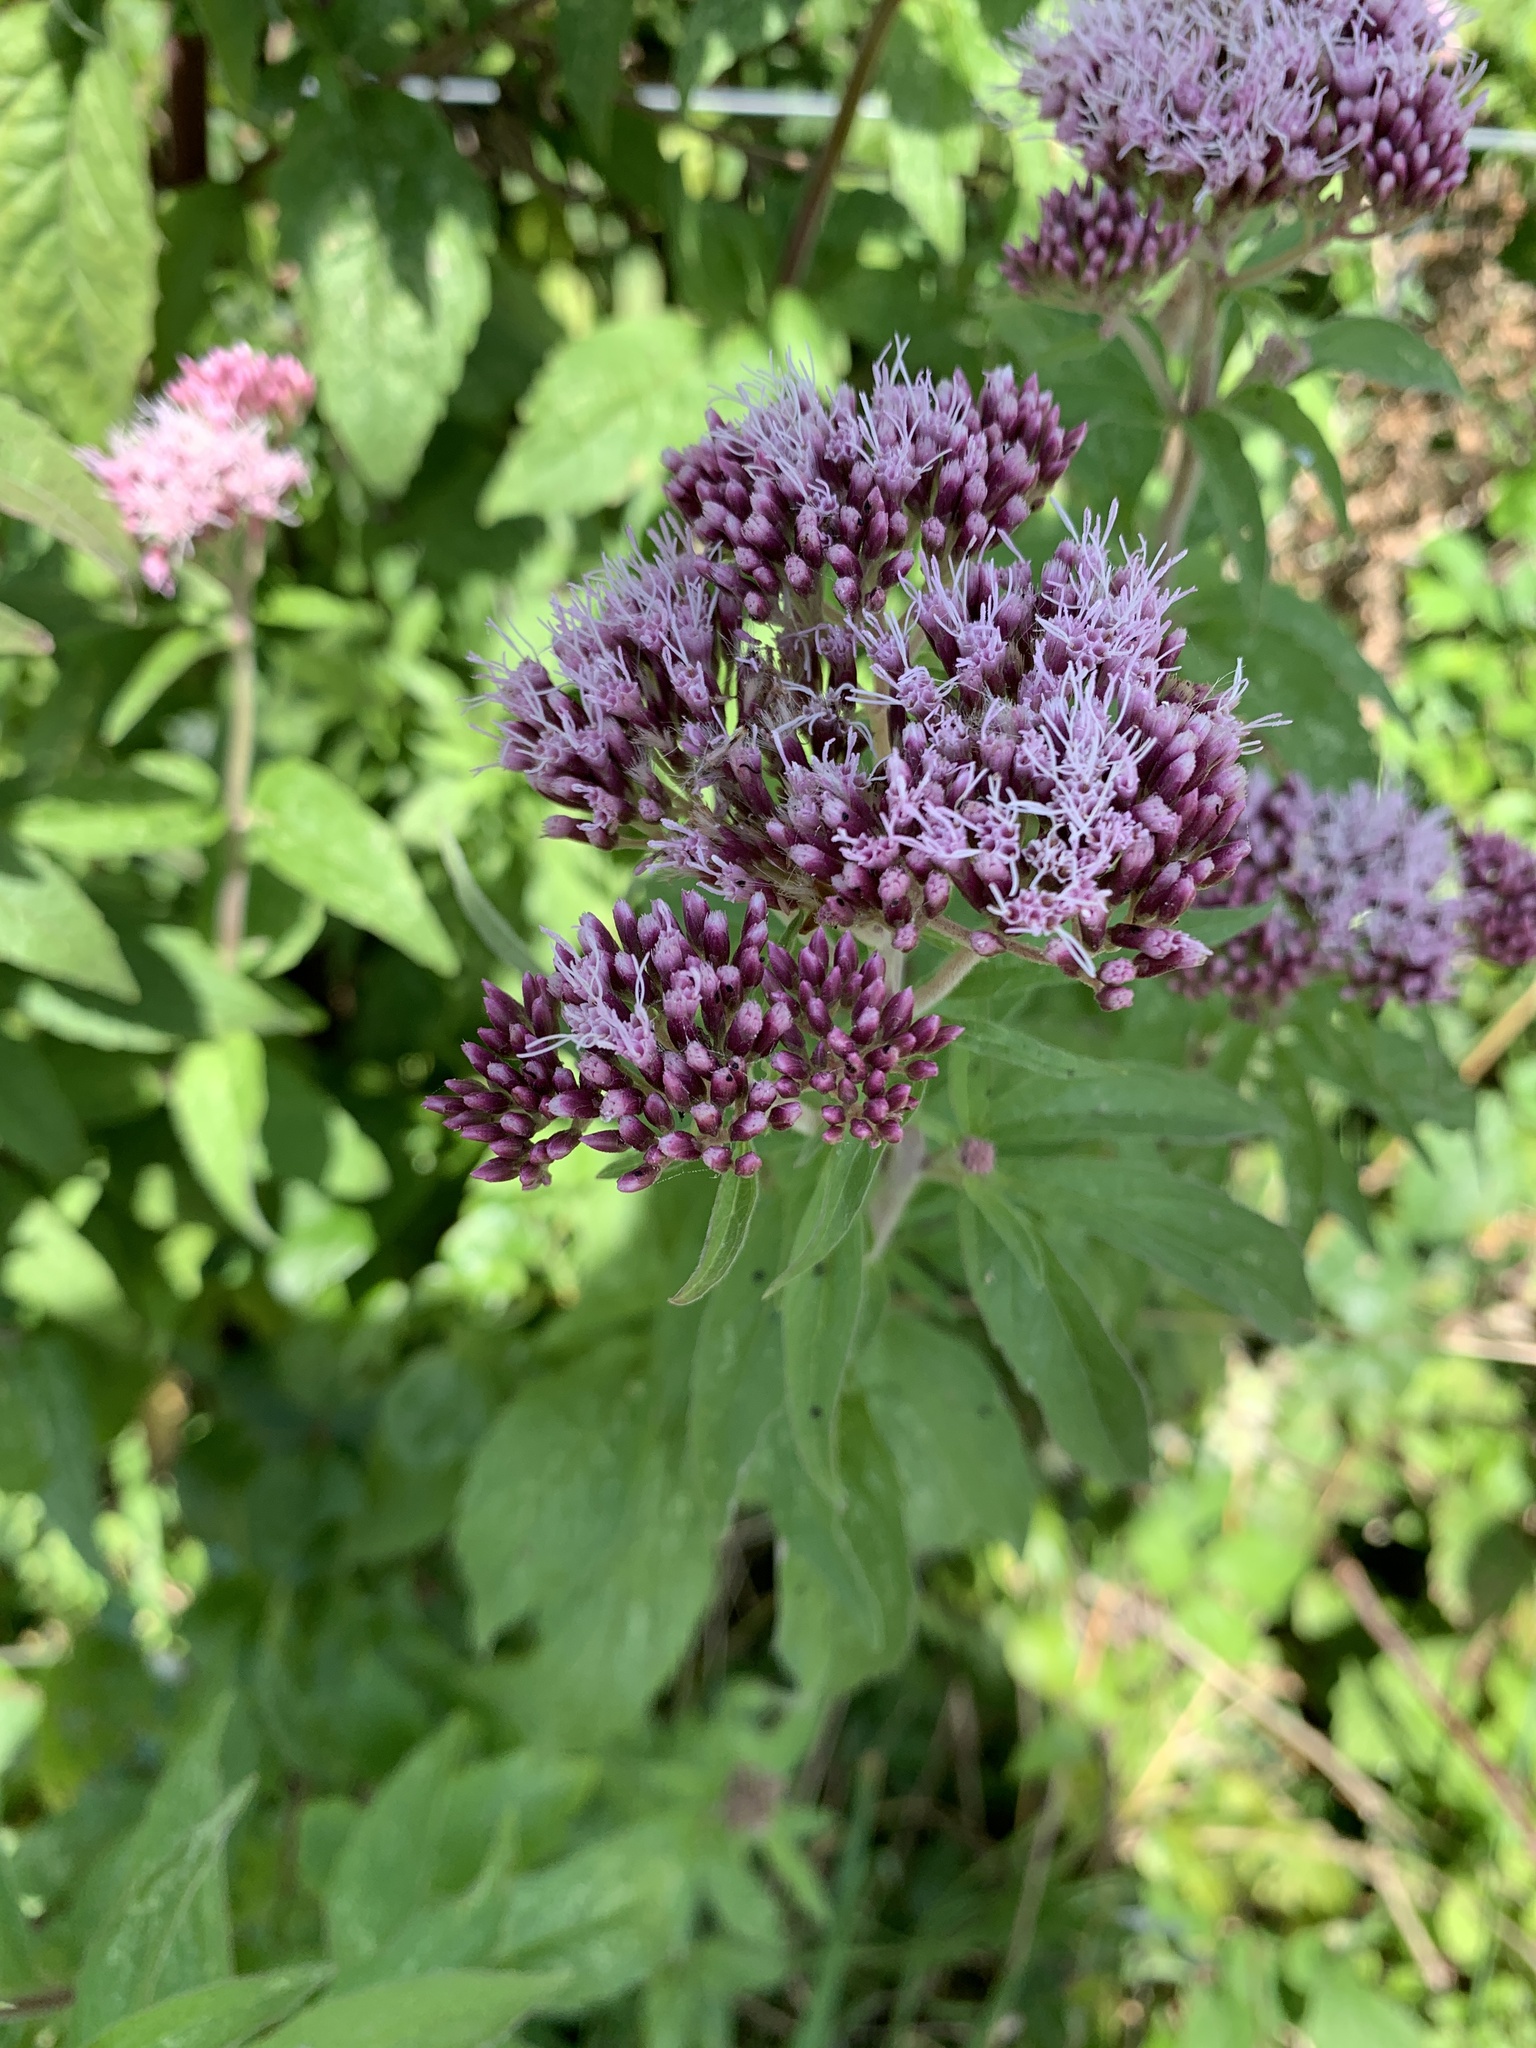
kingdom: Plantae
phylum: Tracheophyta
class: Magnoliopsida
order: Asterales
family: Asteraceae
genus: Eupatorium
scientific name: Eupatorium cannabinum
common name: Hemp-agrimony
